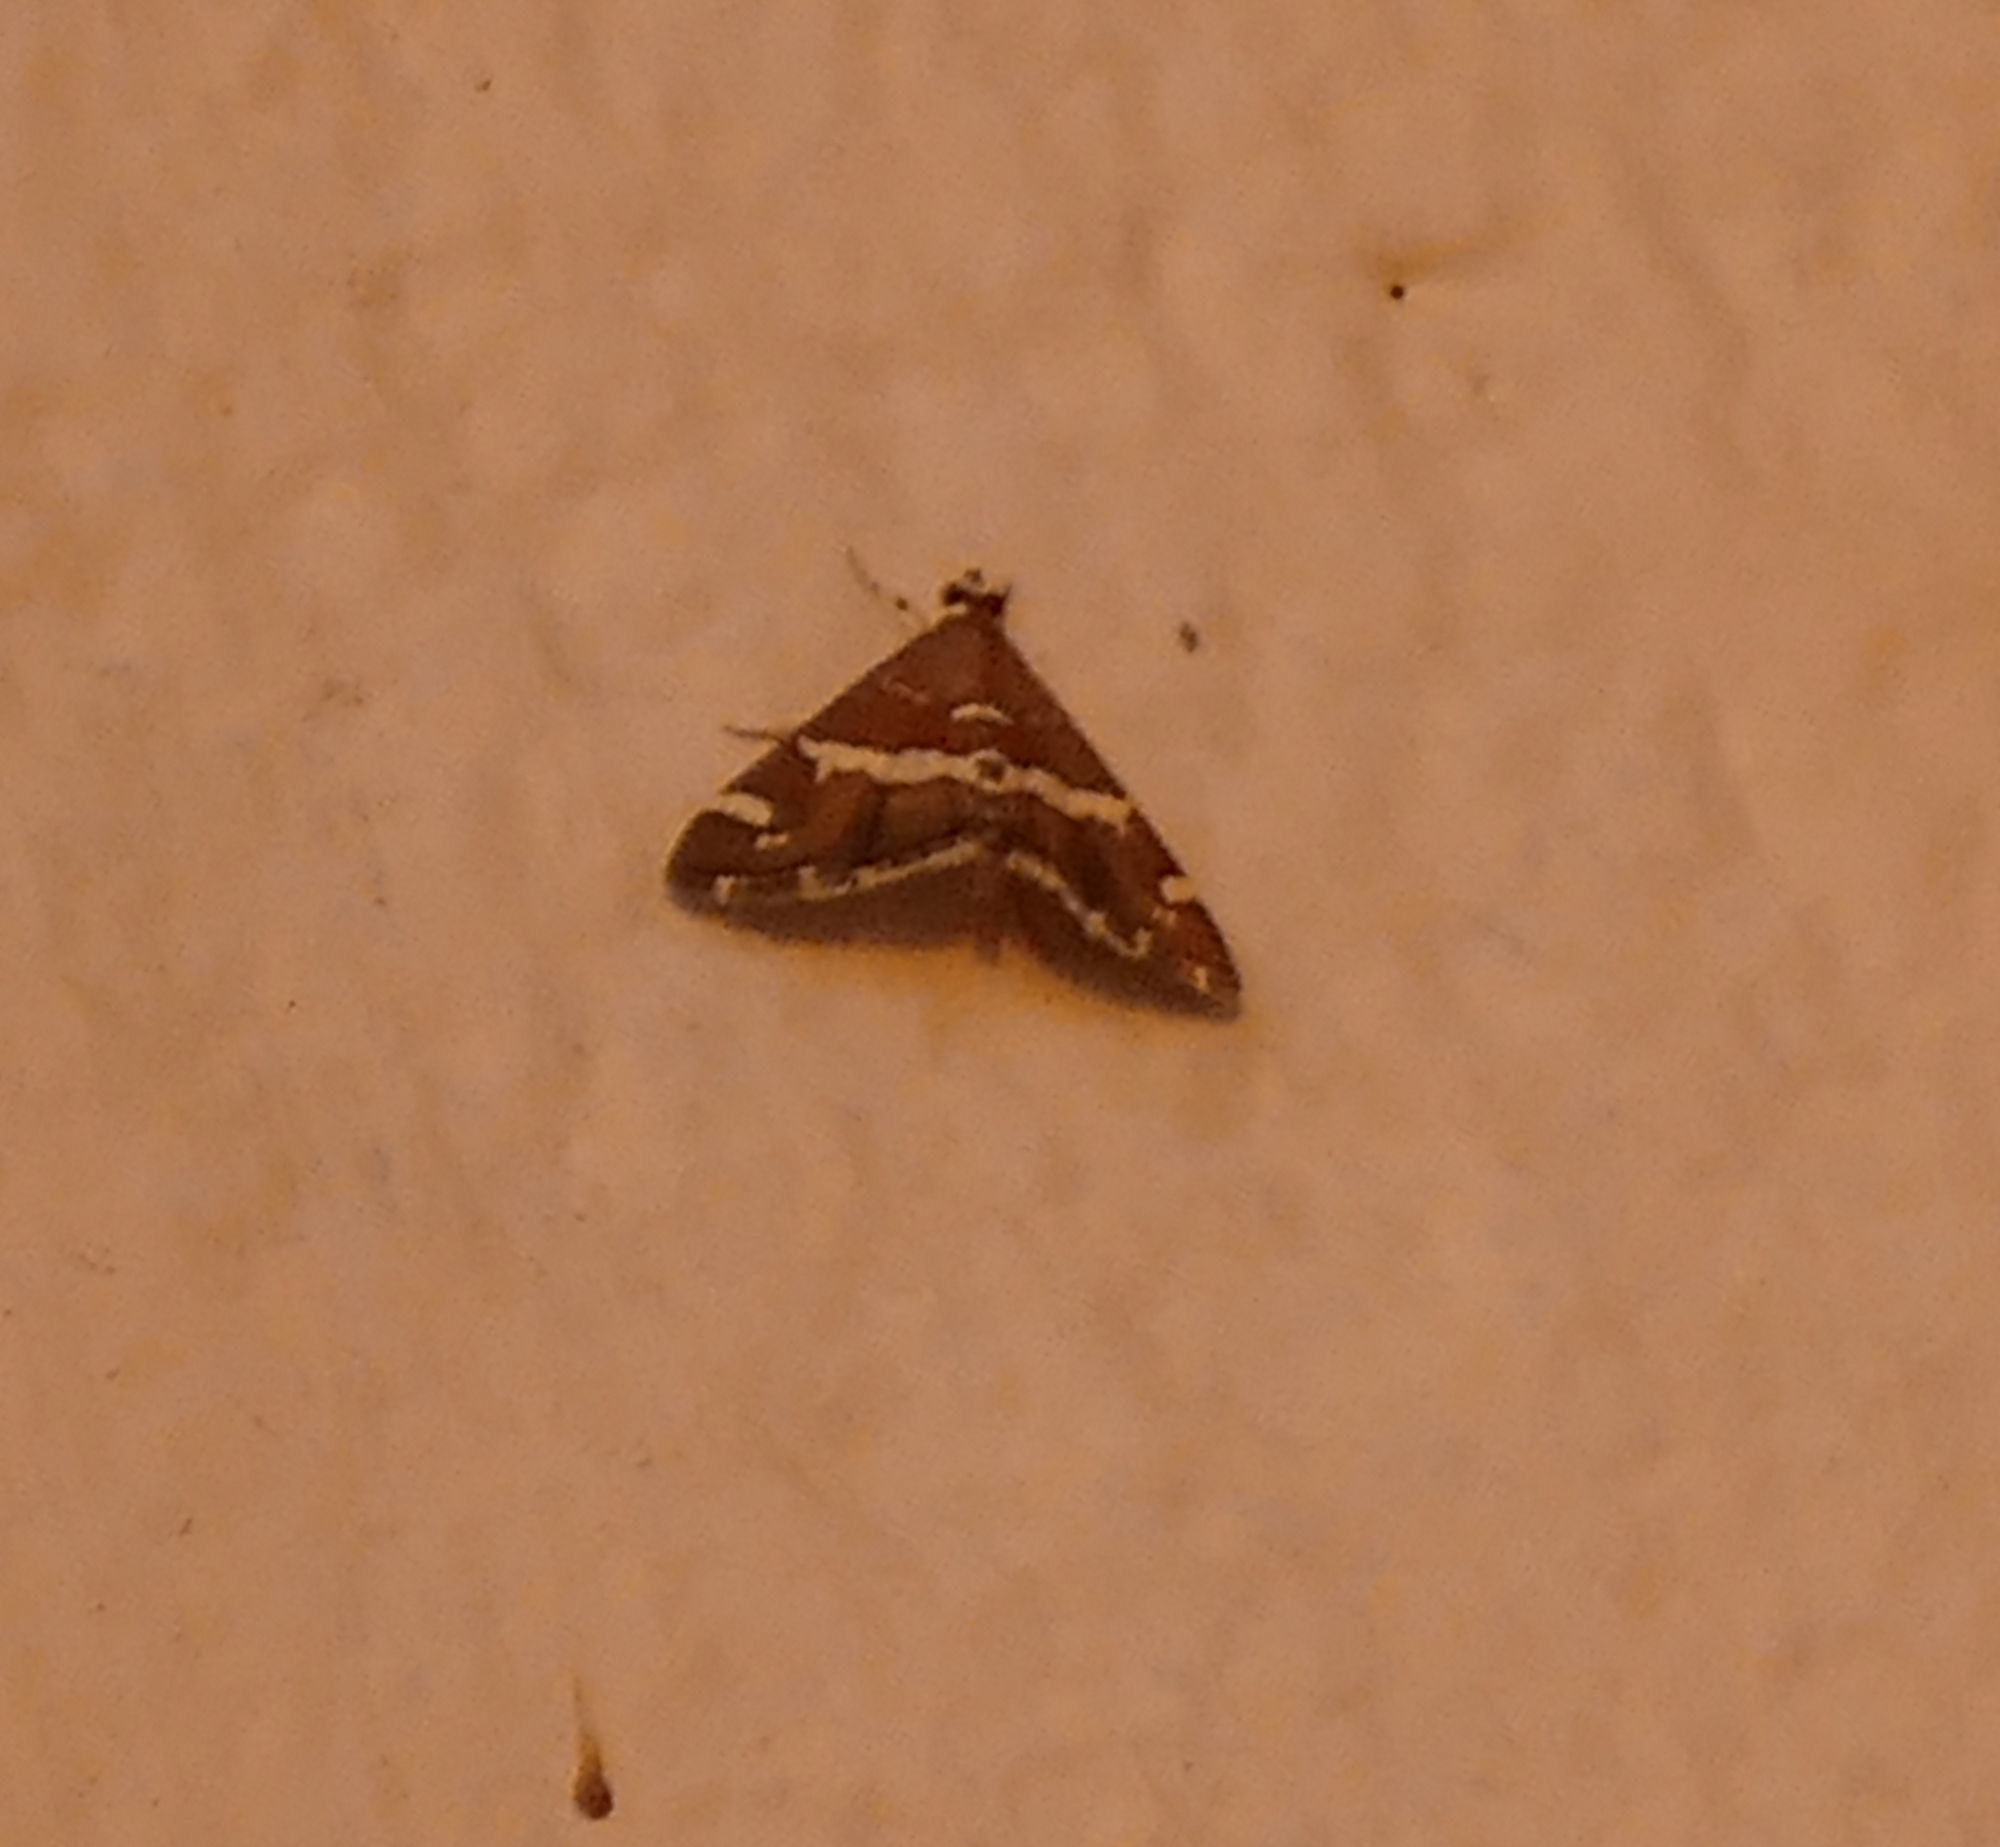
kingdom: Animalia
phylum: Arthropoda
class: Insecta
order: Lepidoptera
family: Crambidae
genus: Spoladea
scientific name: Spoladea recurvalis
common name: Beet webworm moth
